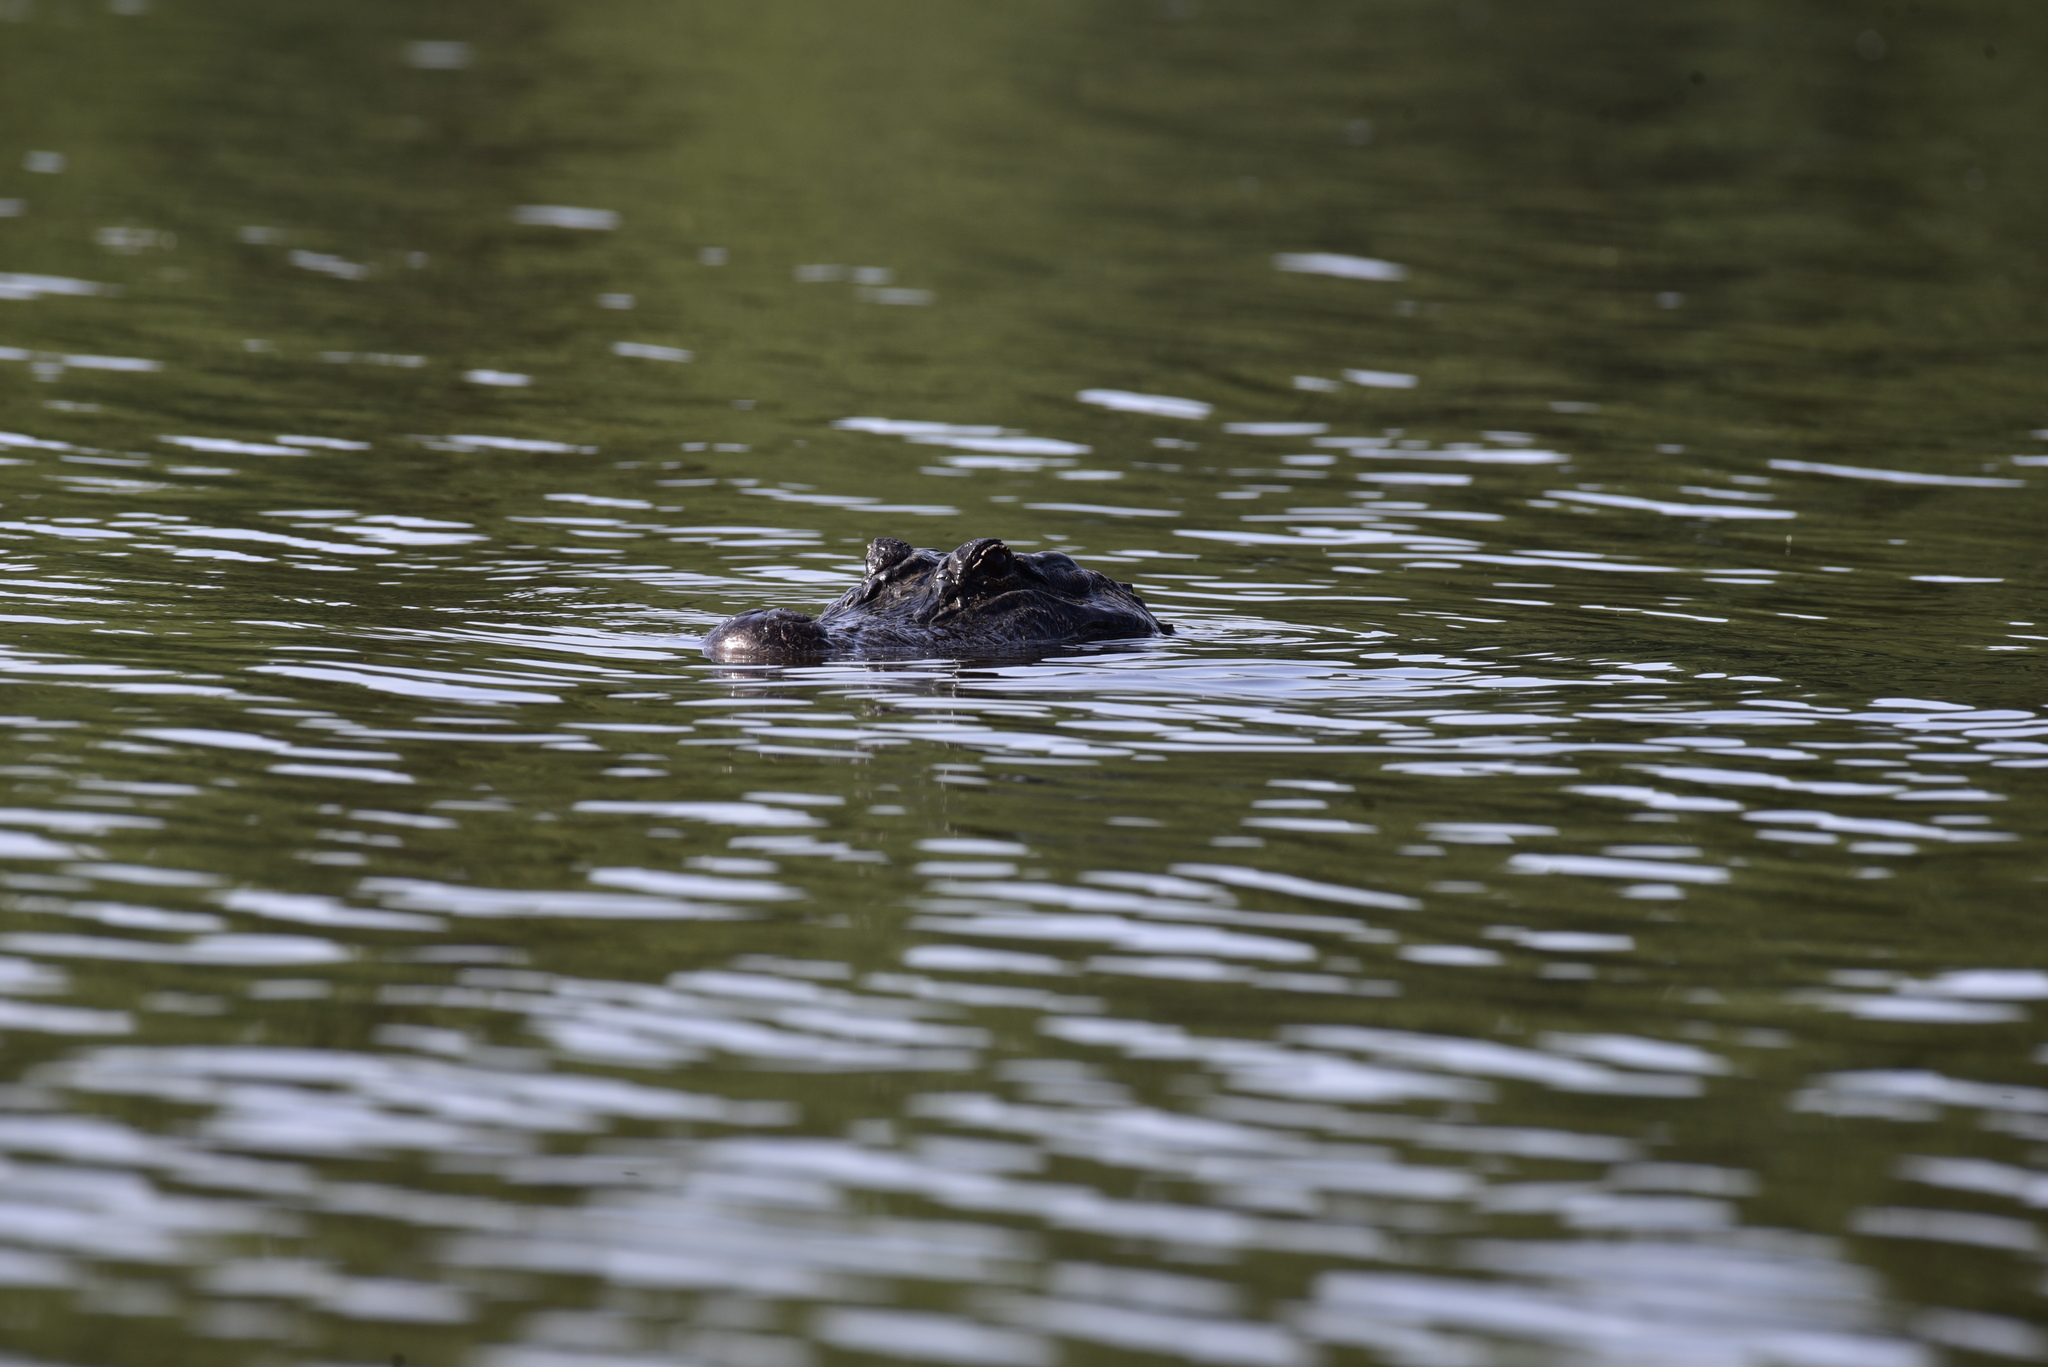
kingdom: Animalia
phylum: Chordata
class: Crocodylia
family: Alligatoridae
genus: Alligator
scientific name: Alligator mississippiensis
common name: American alligator
